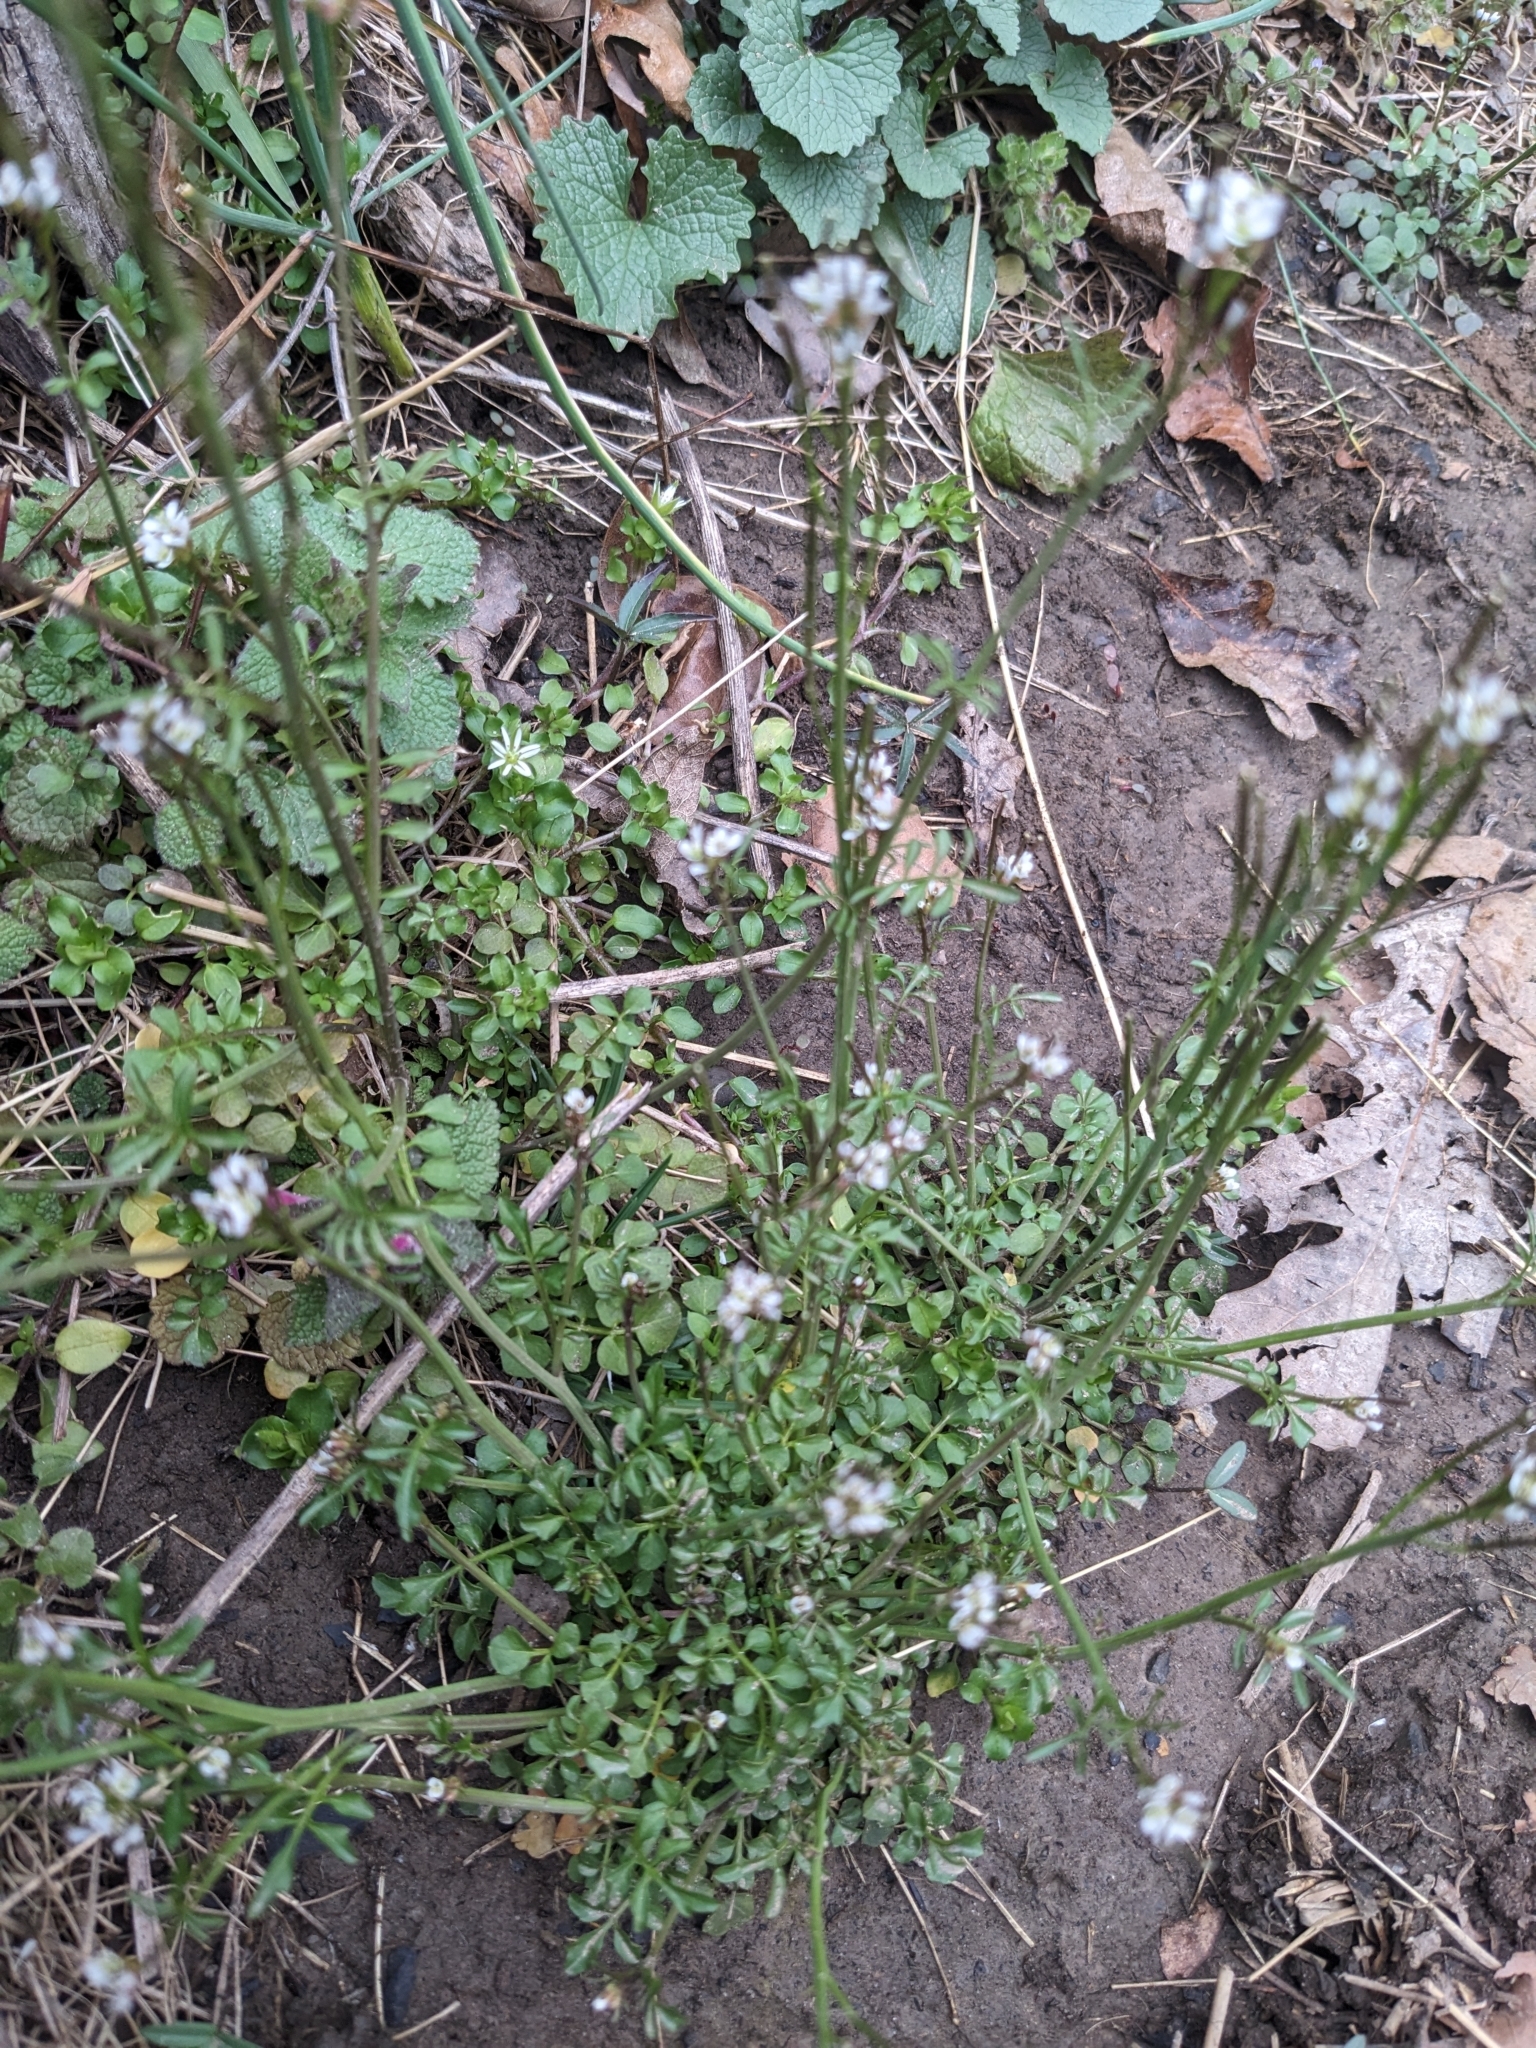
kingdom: Plantae
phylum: Tracheophyta
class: Magnoliopsida
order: Brassicales
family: Brassicaceae
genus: Cardamine
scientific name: Cardamine hirsuta
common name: Hairy bittercress
